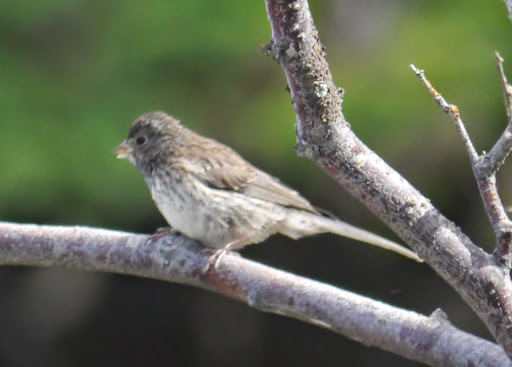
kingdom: Animalia
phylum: Chordata
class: Aves
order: Passeriformes
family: Passerellidae
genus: Junco
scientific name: Junco hyemalis
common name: Dark-eyed junco
